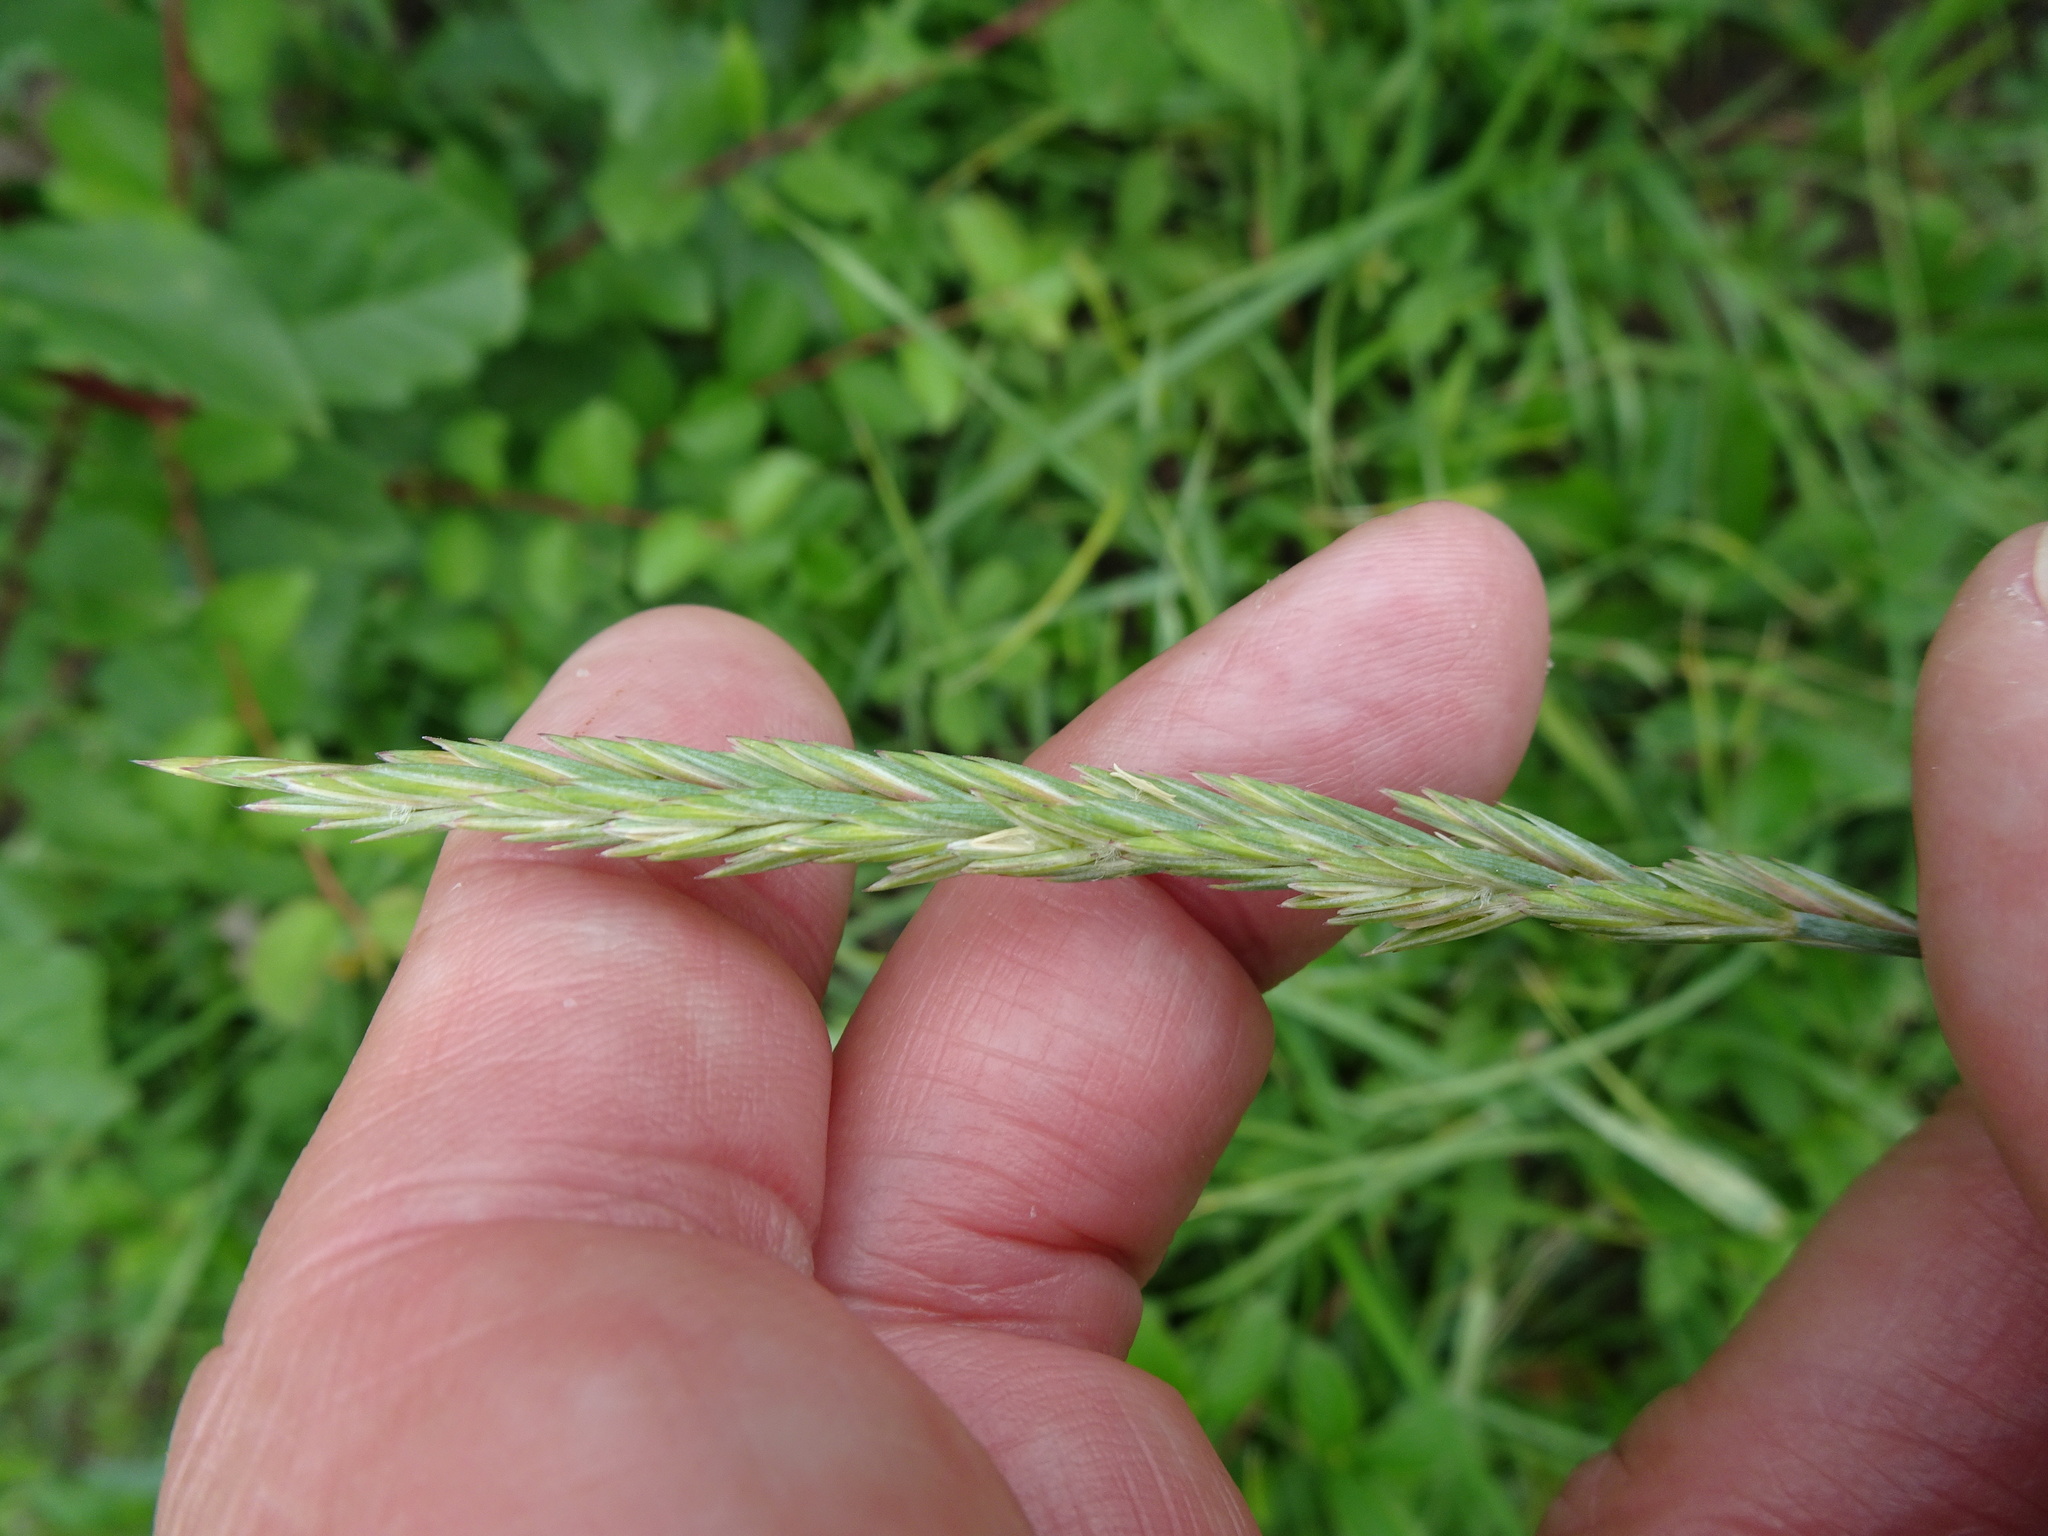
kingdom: Plantae
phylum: Tracheophyta
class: Liliopsida
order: Poales
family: Poaceae
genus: Elymus
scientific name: Elymus repens
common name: Quackgrass
